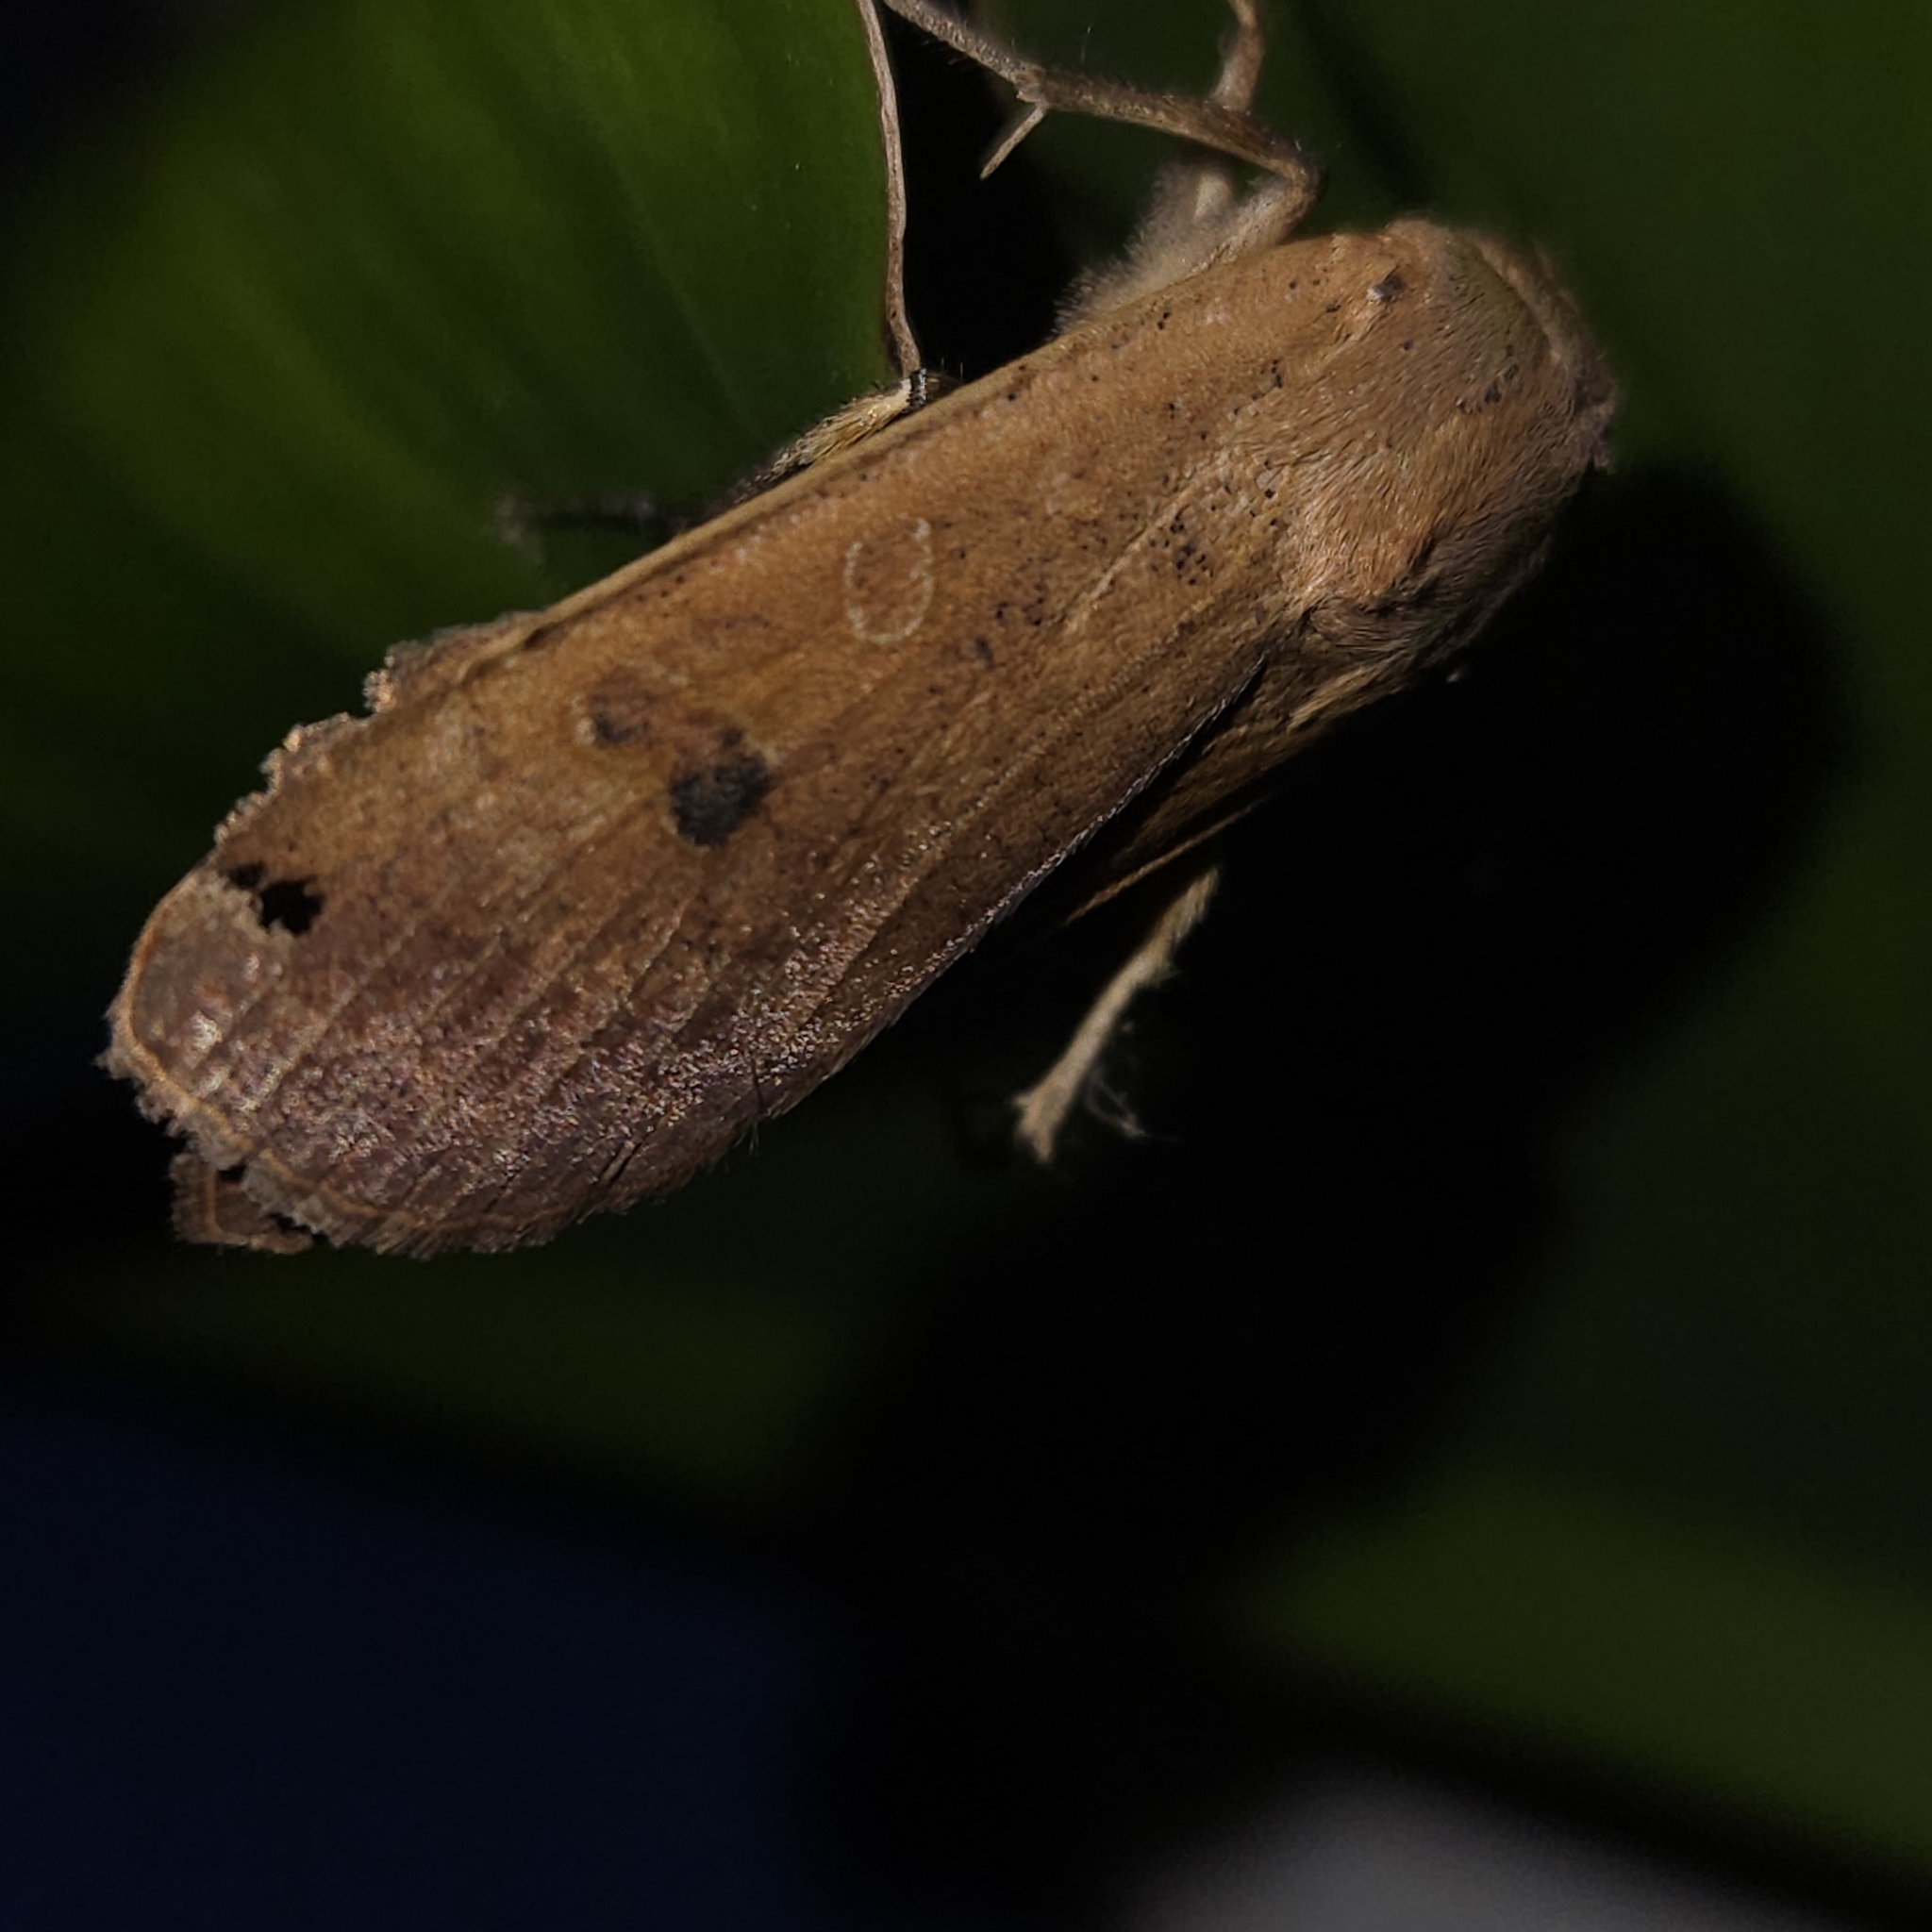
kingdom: Animalia
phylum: Arthropoda
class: Insecta
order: Lepidoptera
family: Noctuidae
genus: Noctua
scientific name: Noctua pronuba
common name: Large yellow underwing
